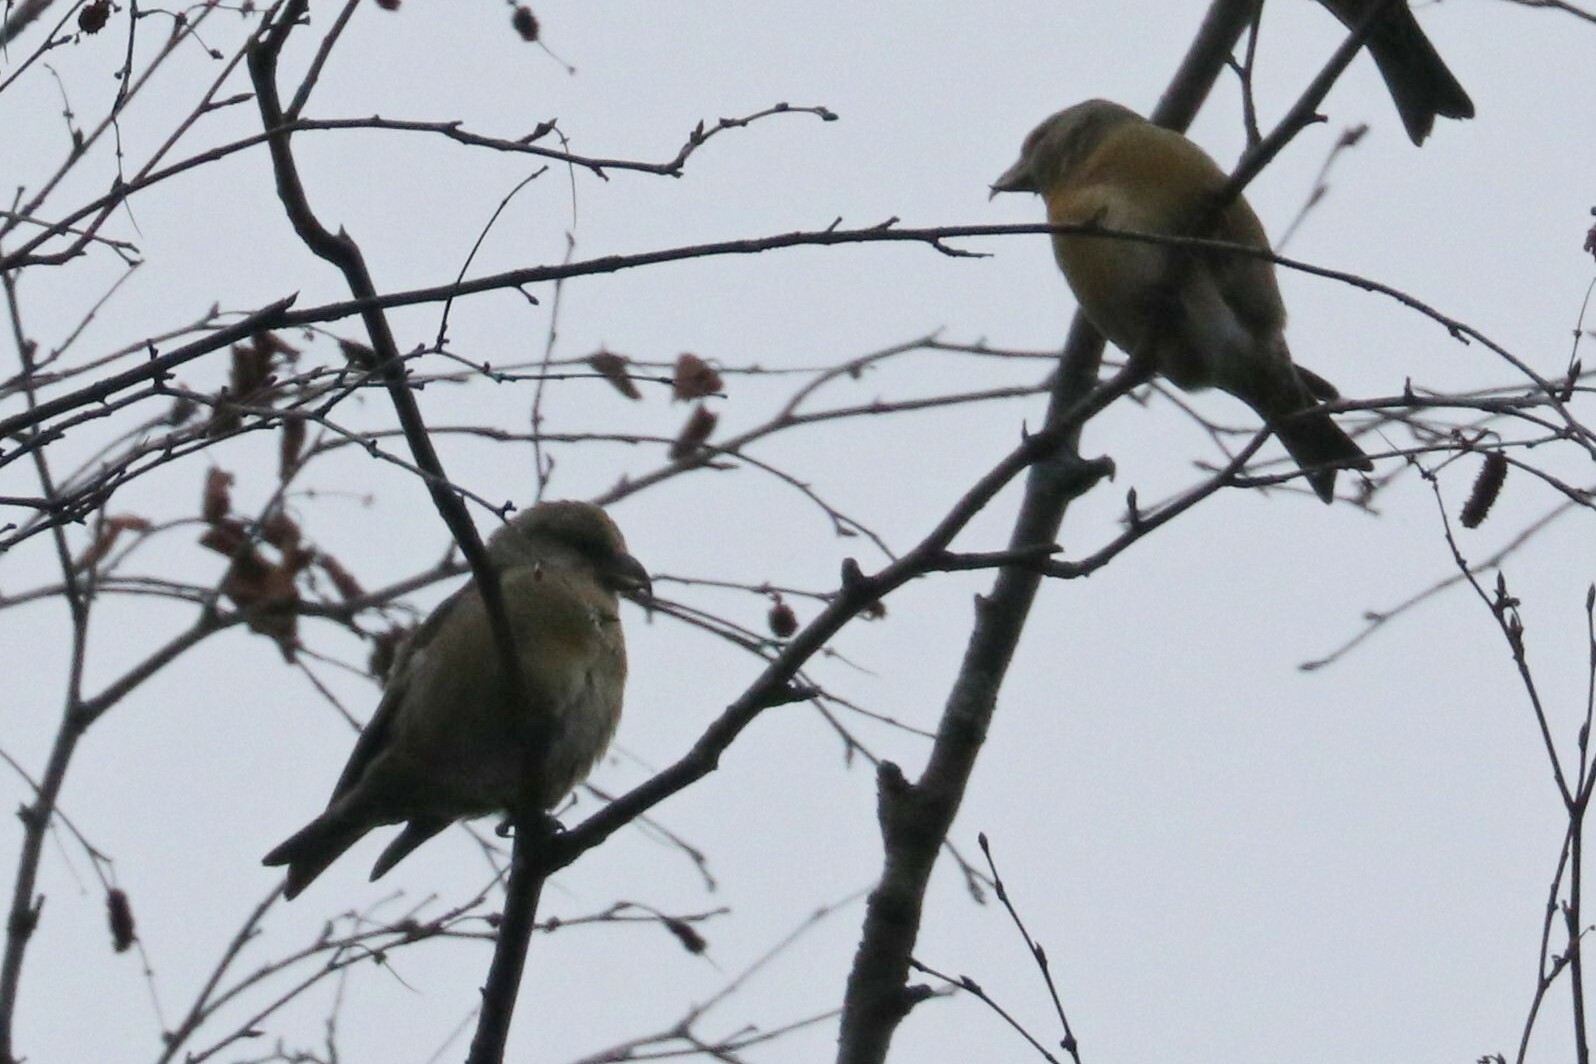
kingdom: Animalia
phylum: Chordata
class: Aves
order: Passeriformes
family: Fringillidae
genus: Loxia
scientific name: Loxia curvirostra
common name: Red crossbill
